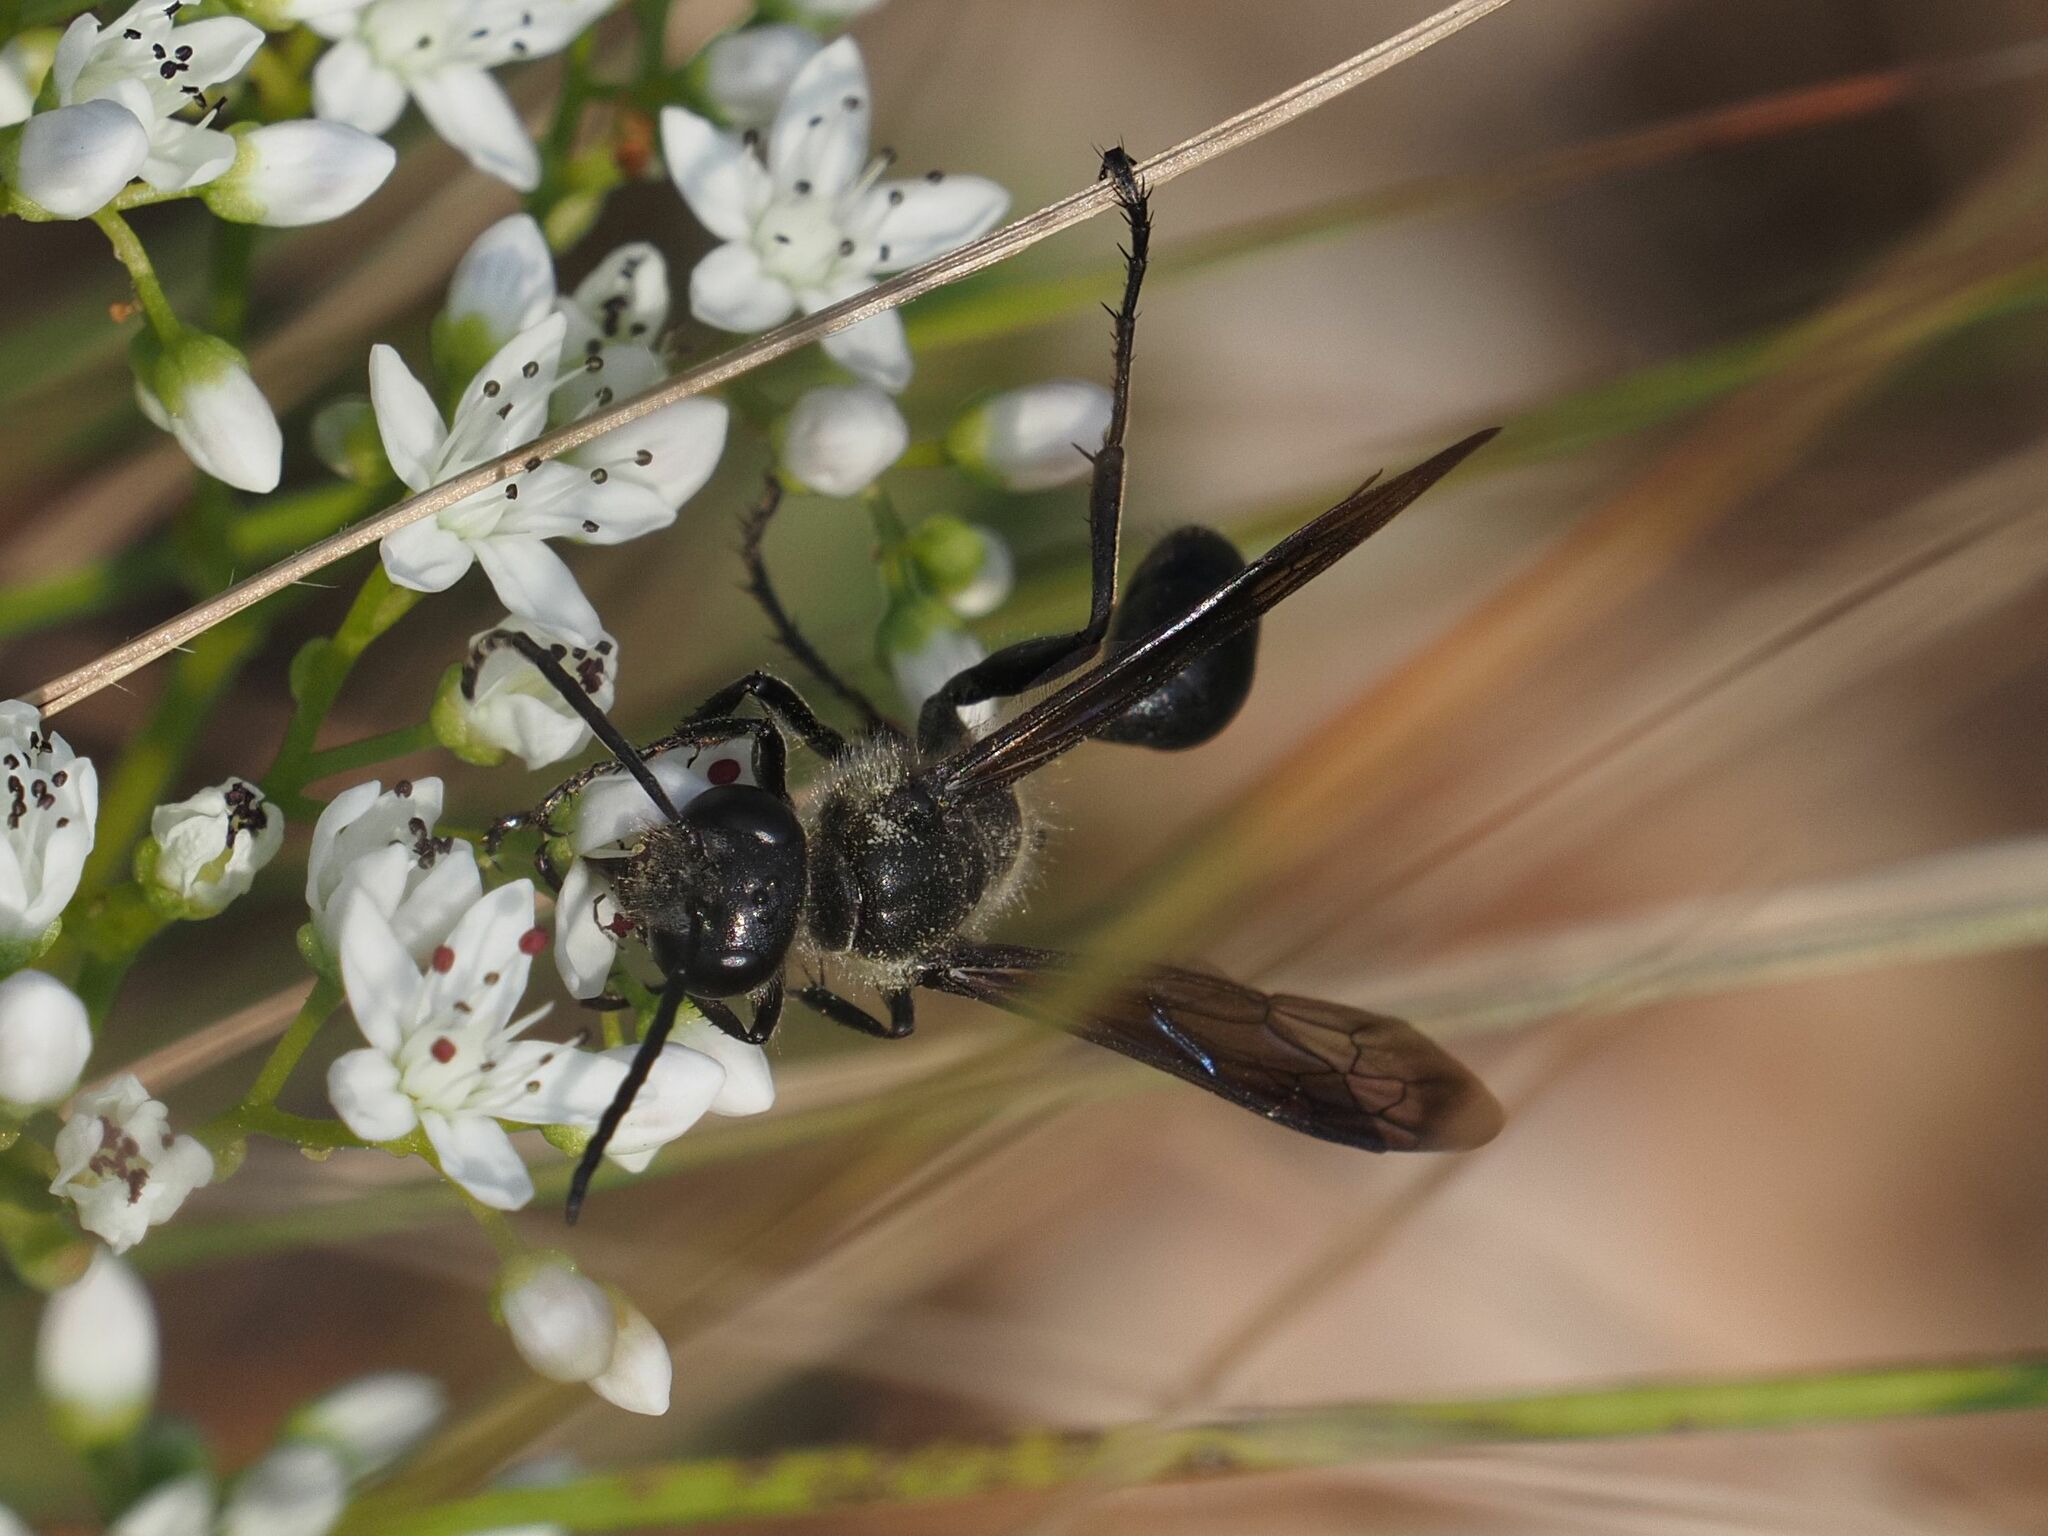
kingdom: Animalia
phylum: Arthropoda
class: Insecta
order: Hymenoptera
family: Sphecidae
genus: Isodontia
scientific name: Isodontia mexicana
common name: Mud dauber
